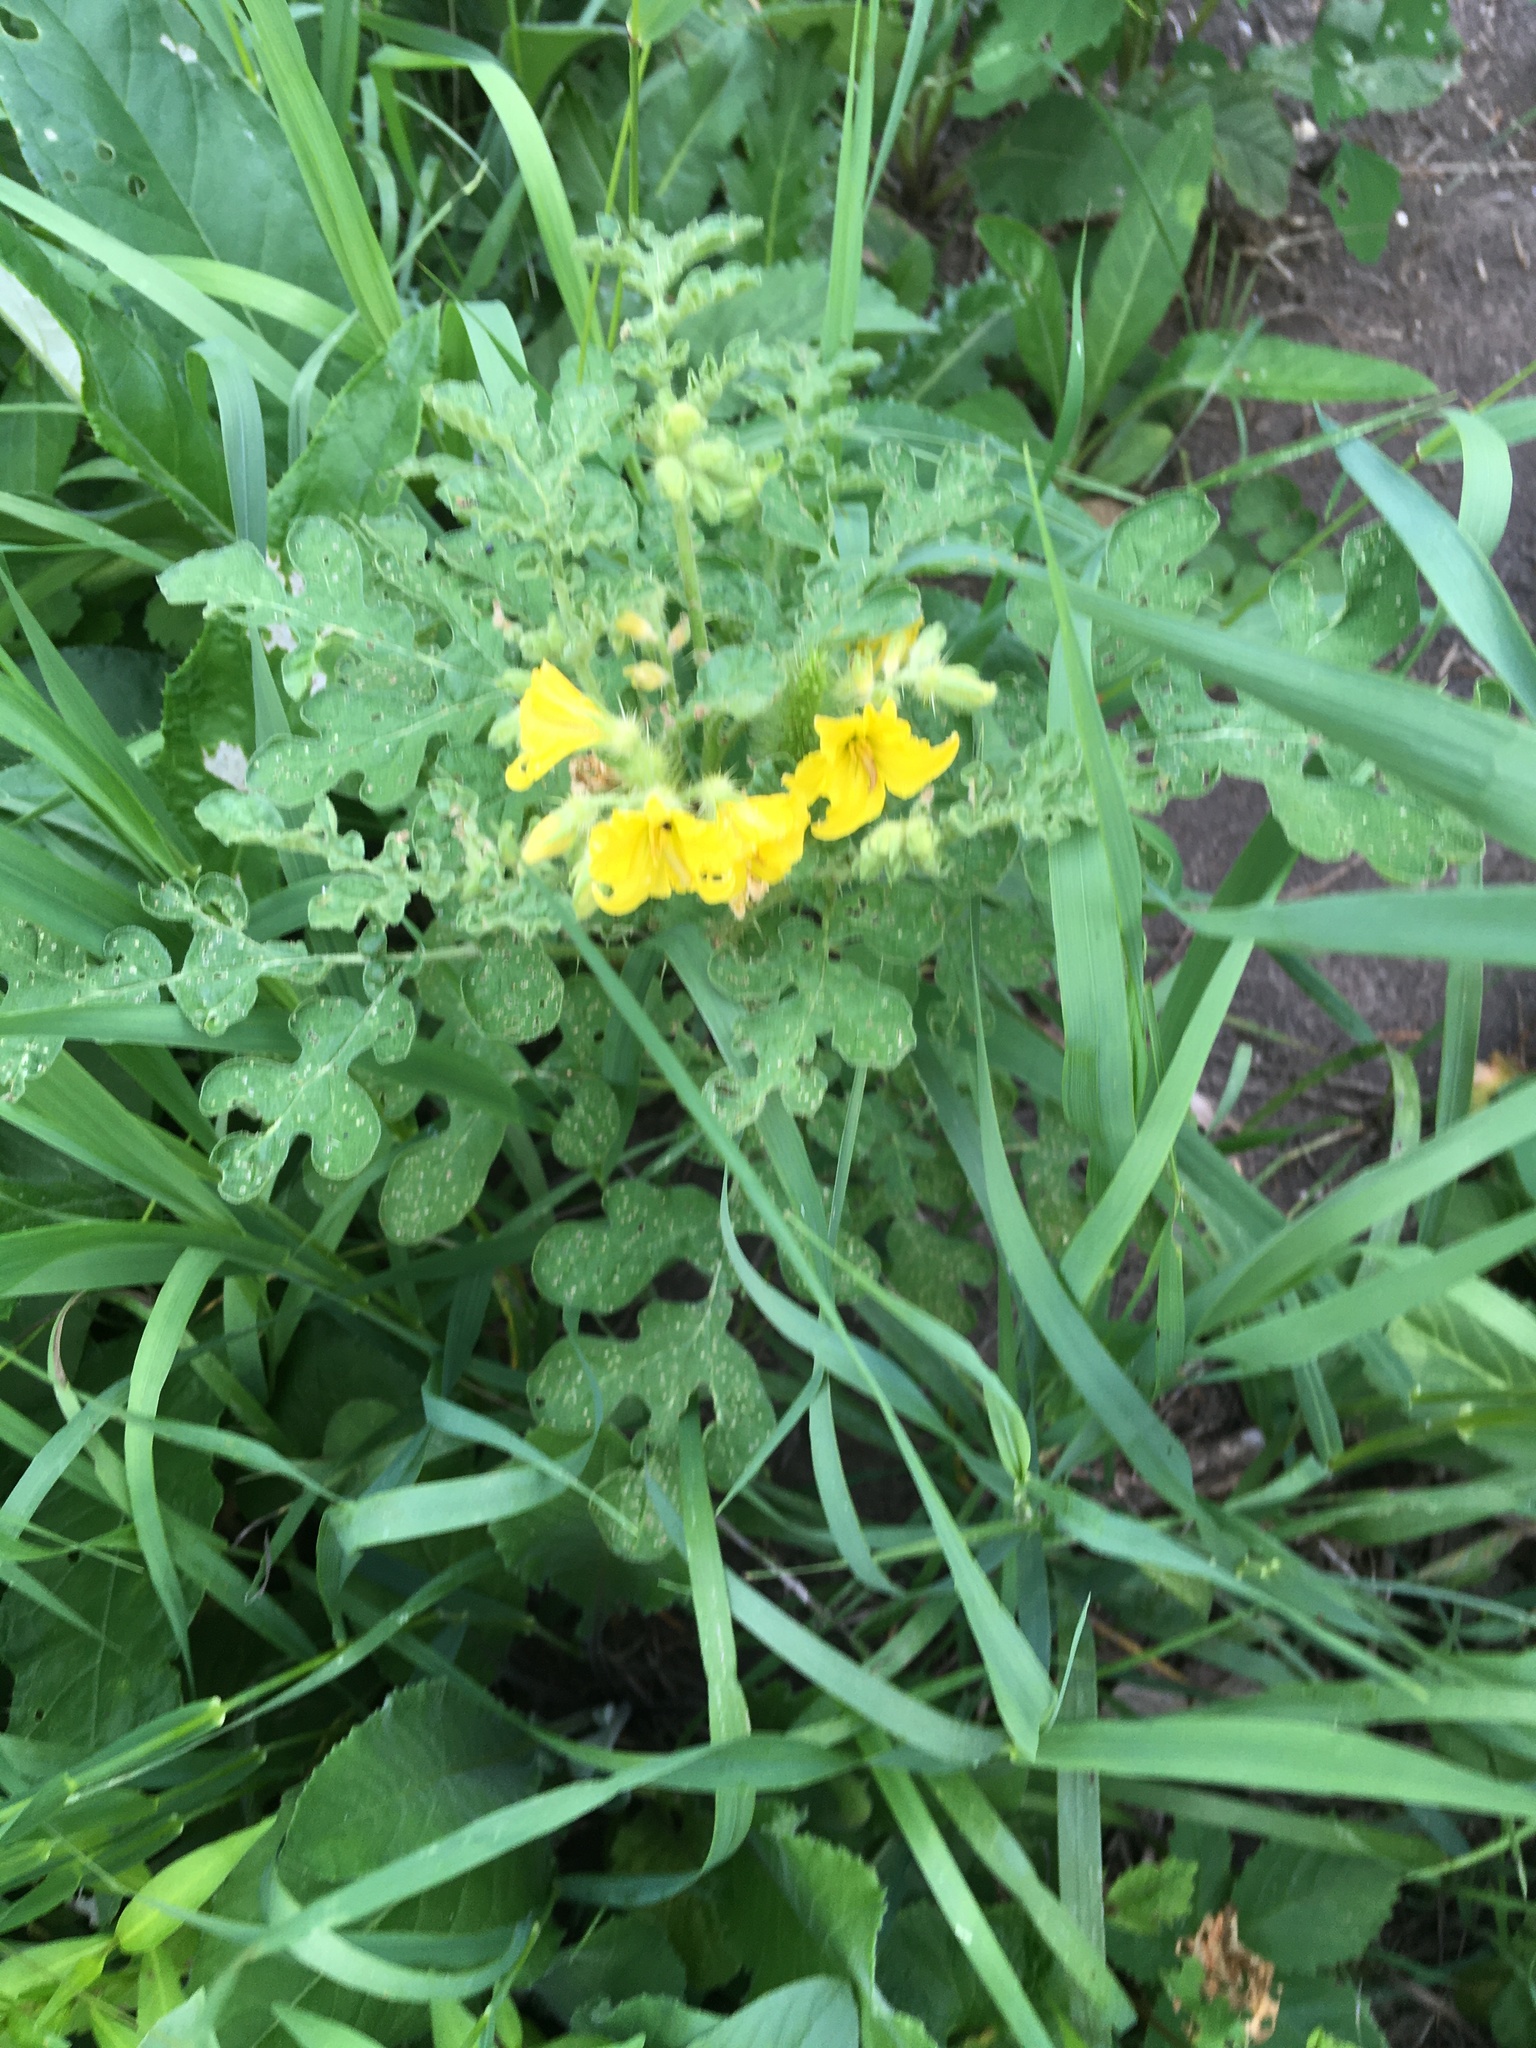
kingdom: Plantae
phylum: Tracheophyta
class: Magnoliopsida
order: Solanales
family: Solanaceae
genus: Solanum
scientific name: Solanum angustifolium
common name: Buffalobur nightshade
